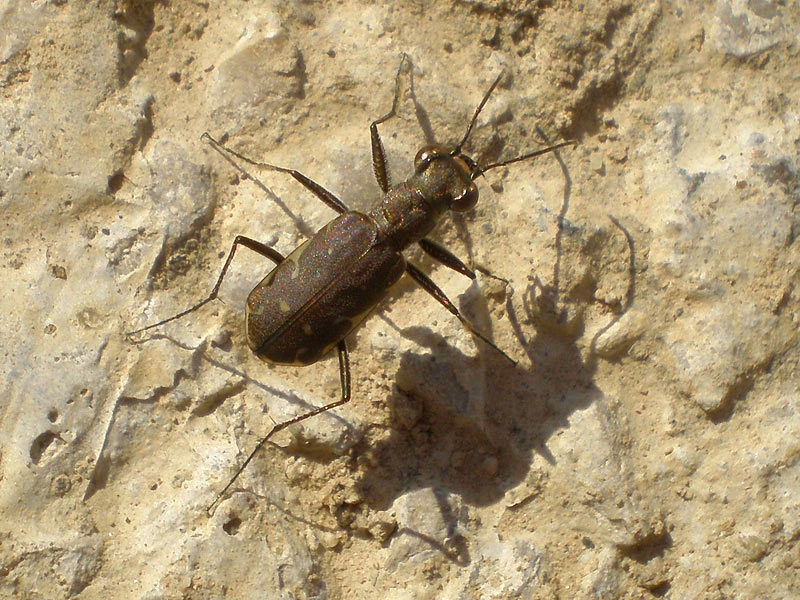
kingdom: Animalia
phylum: Arthropoda
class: Insecta
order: Coleoptera
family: Carabidae
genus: Myriochila
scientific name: Myriochila melancholica
